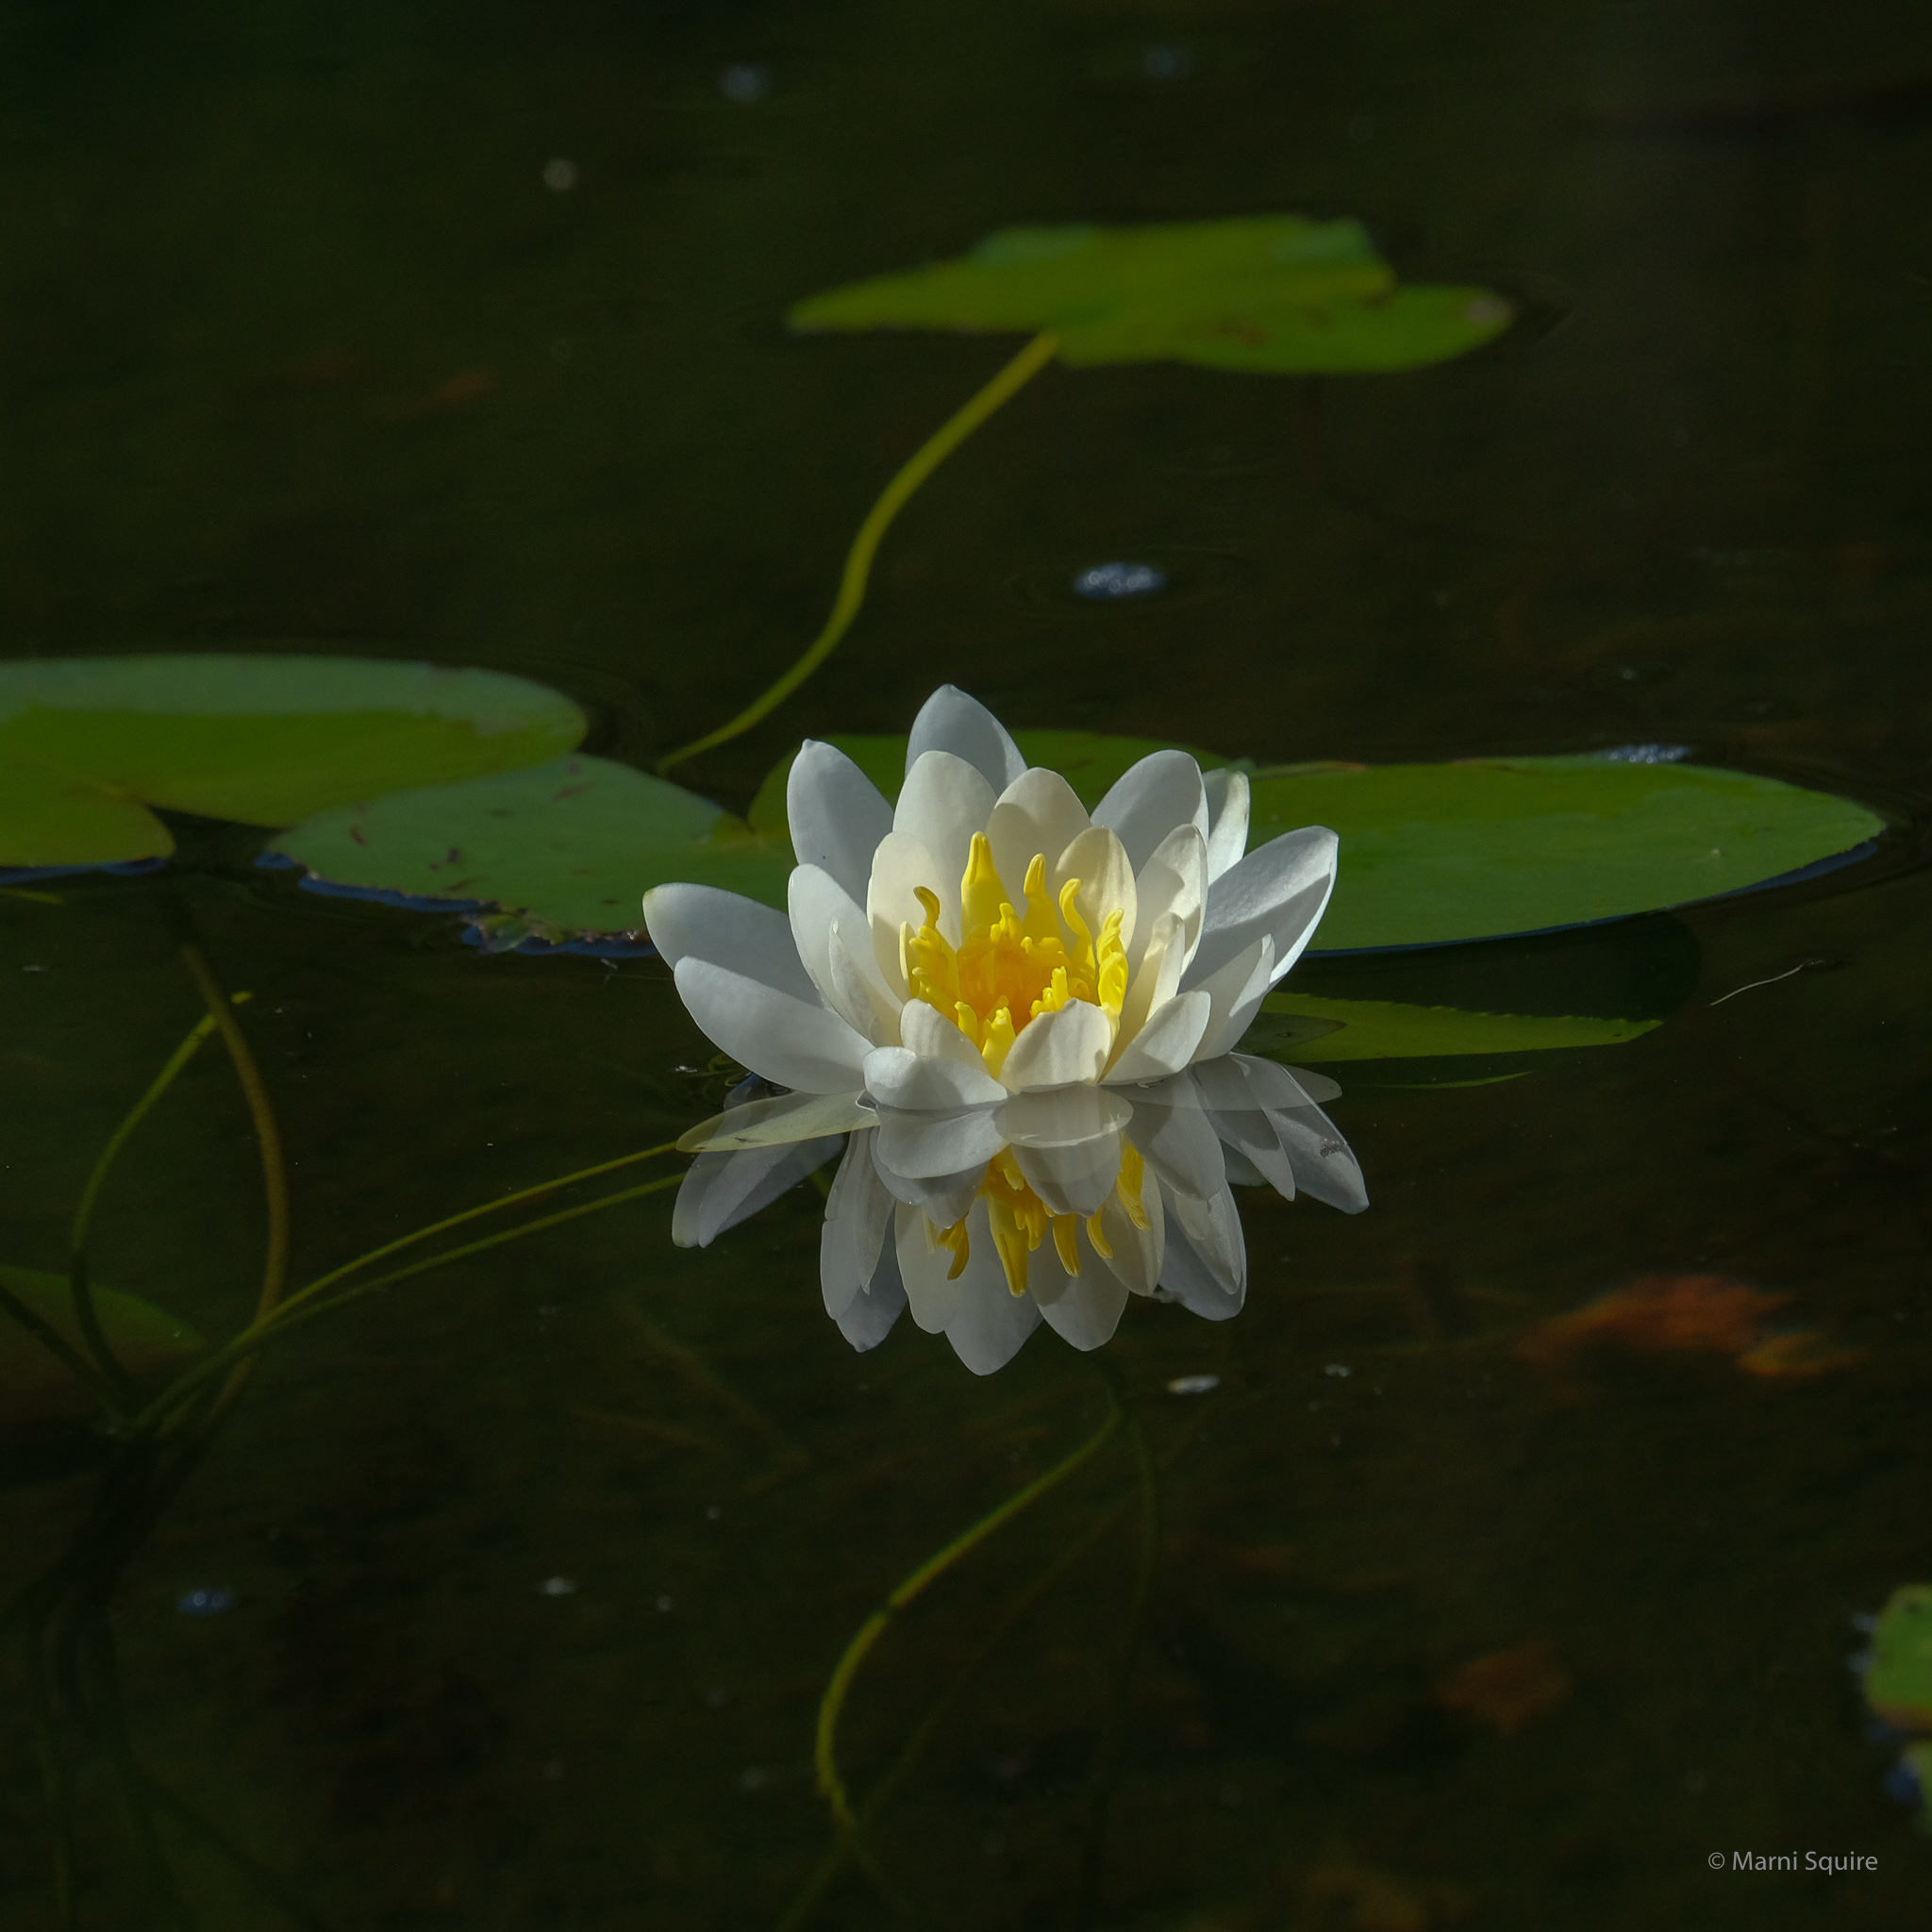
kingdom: Plantae
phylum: Tracheophyta
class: Magnoliopsida
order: Nymphaeales
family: Nymphaeaceae
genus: Nymphaea
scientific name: Nymphaea odorata
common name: Fragrant water-lily
